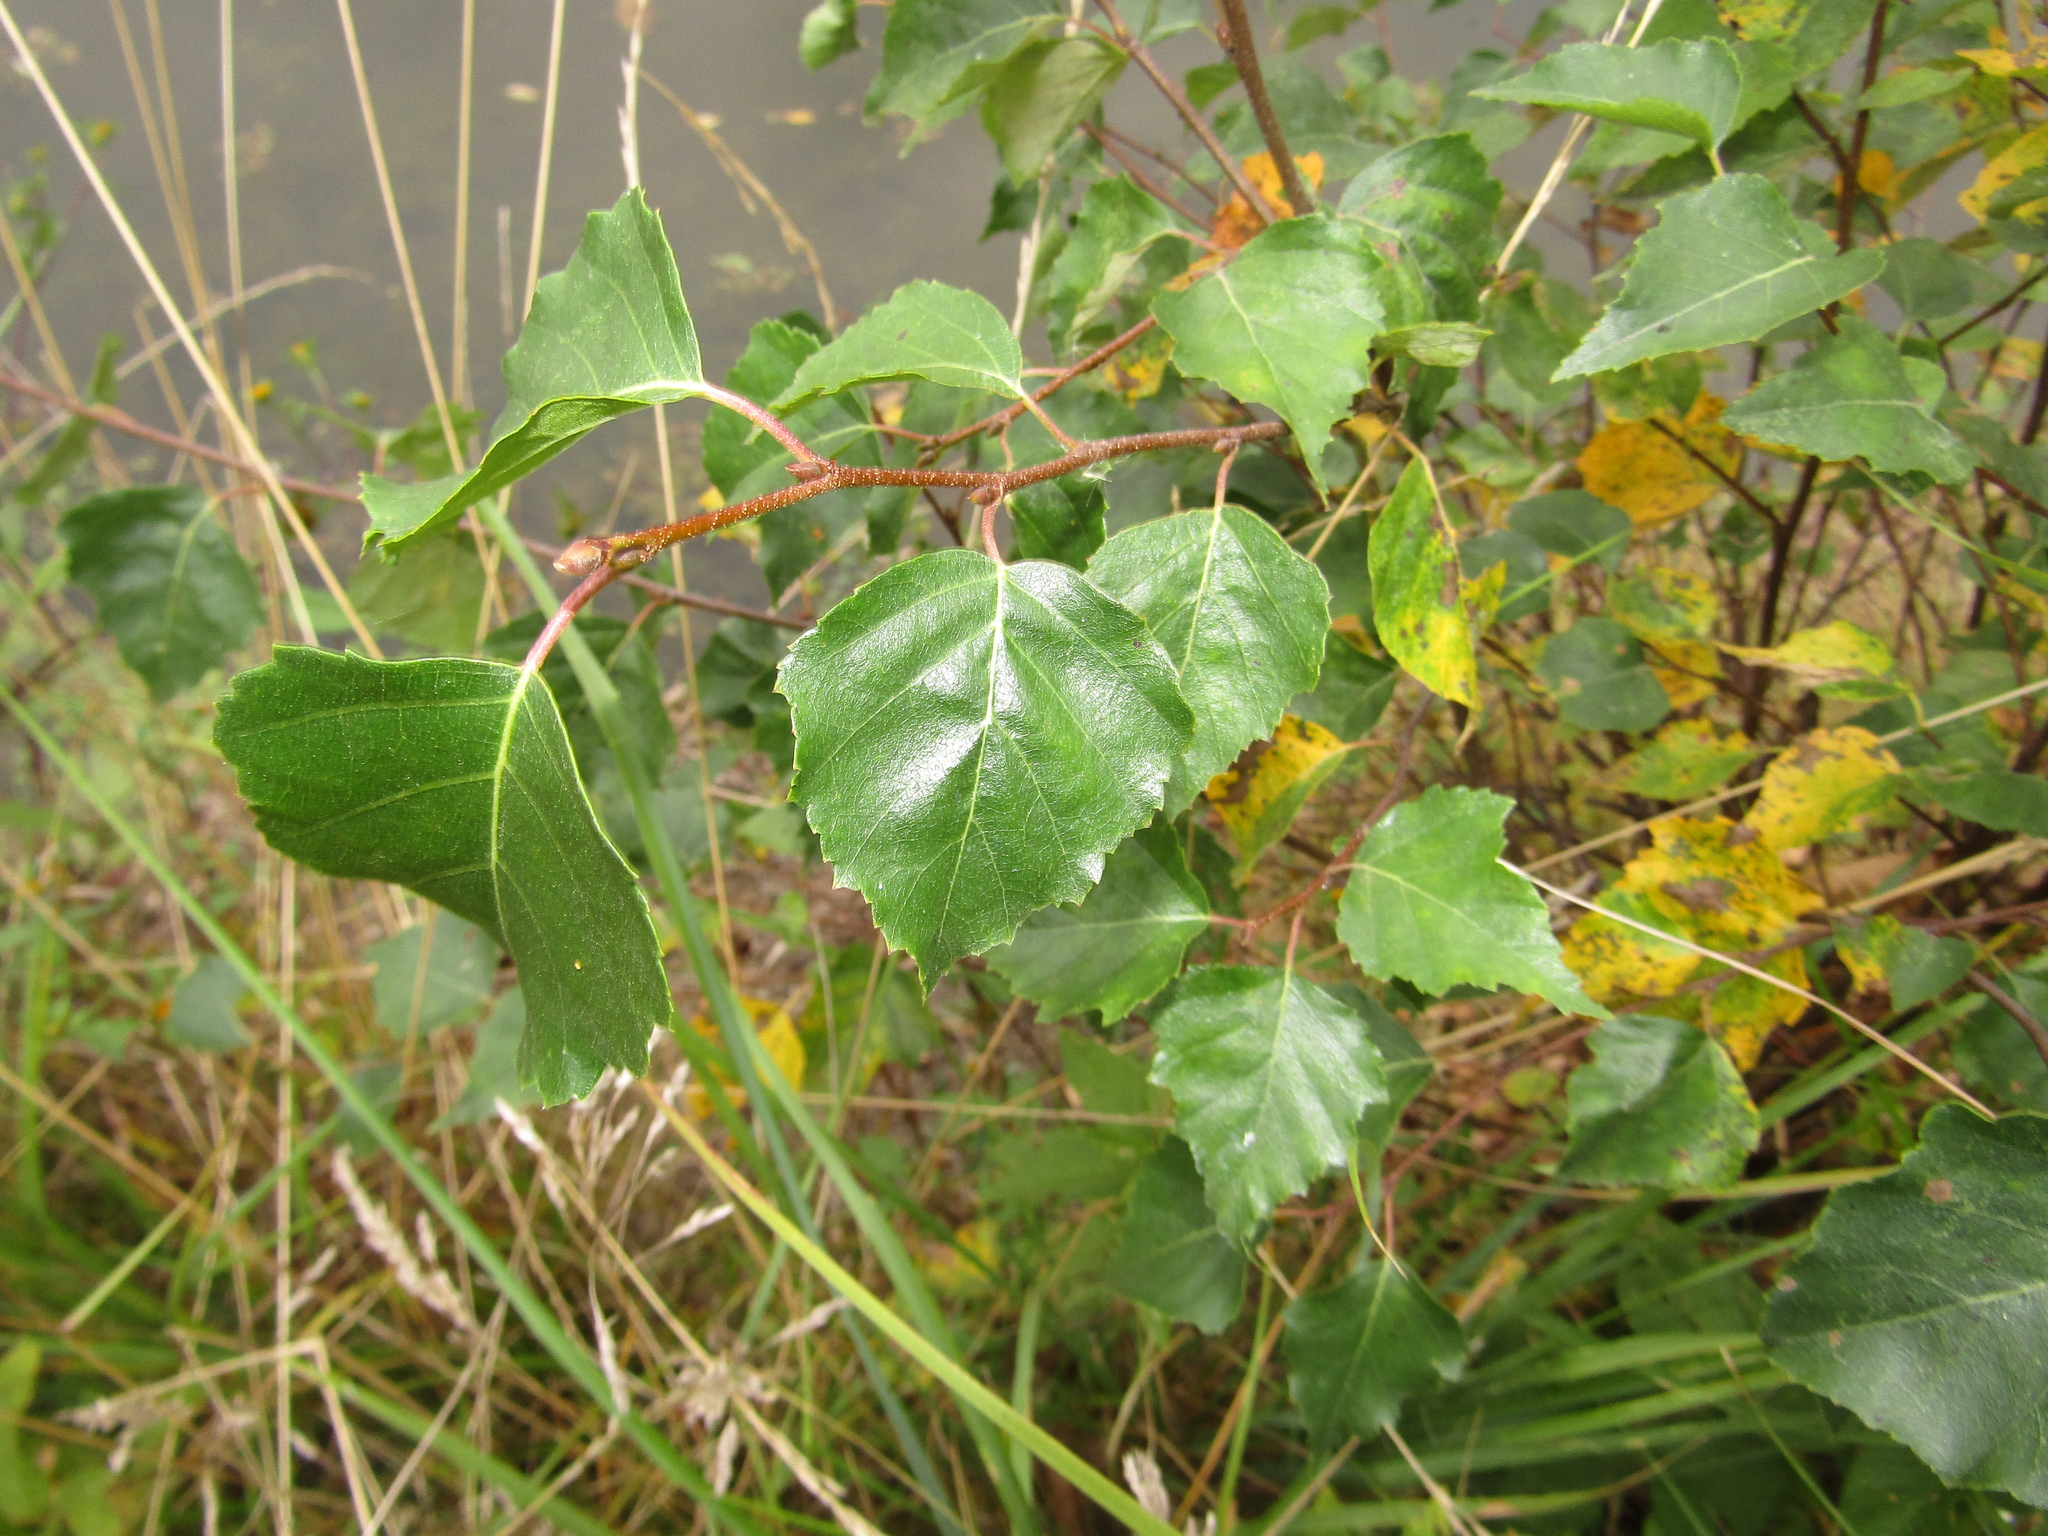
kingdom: Plantae
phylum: Tracheophyta
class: Magnoliopsida
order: Fagales
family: Betulaceae
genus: Betula
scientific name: Betula pendula
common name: Silver birch
